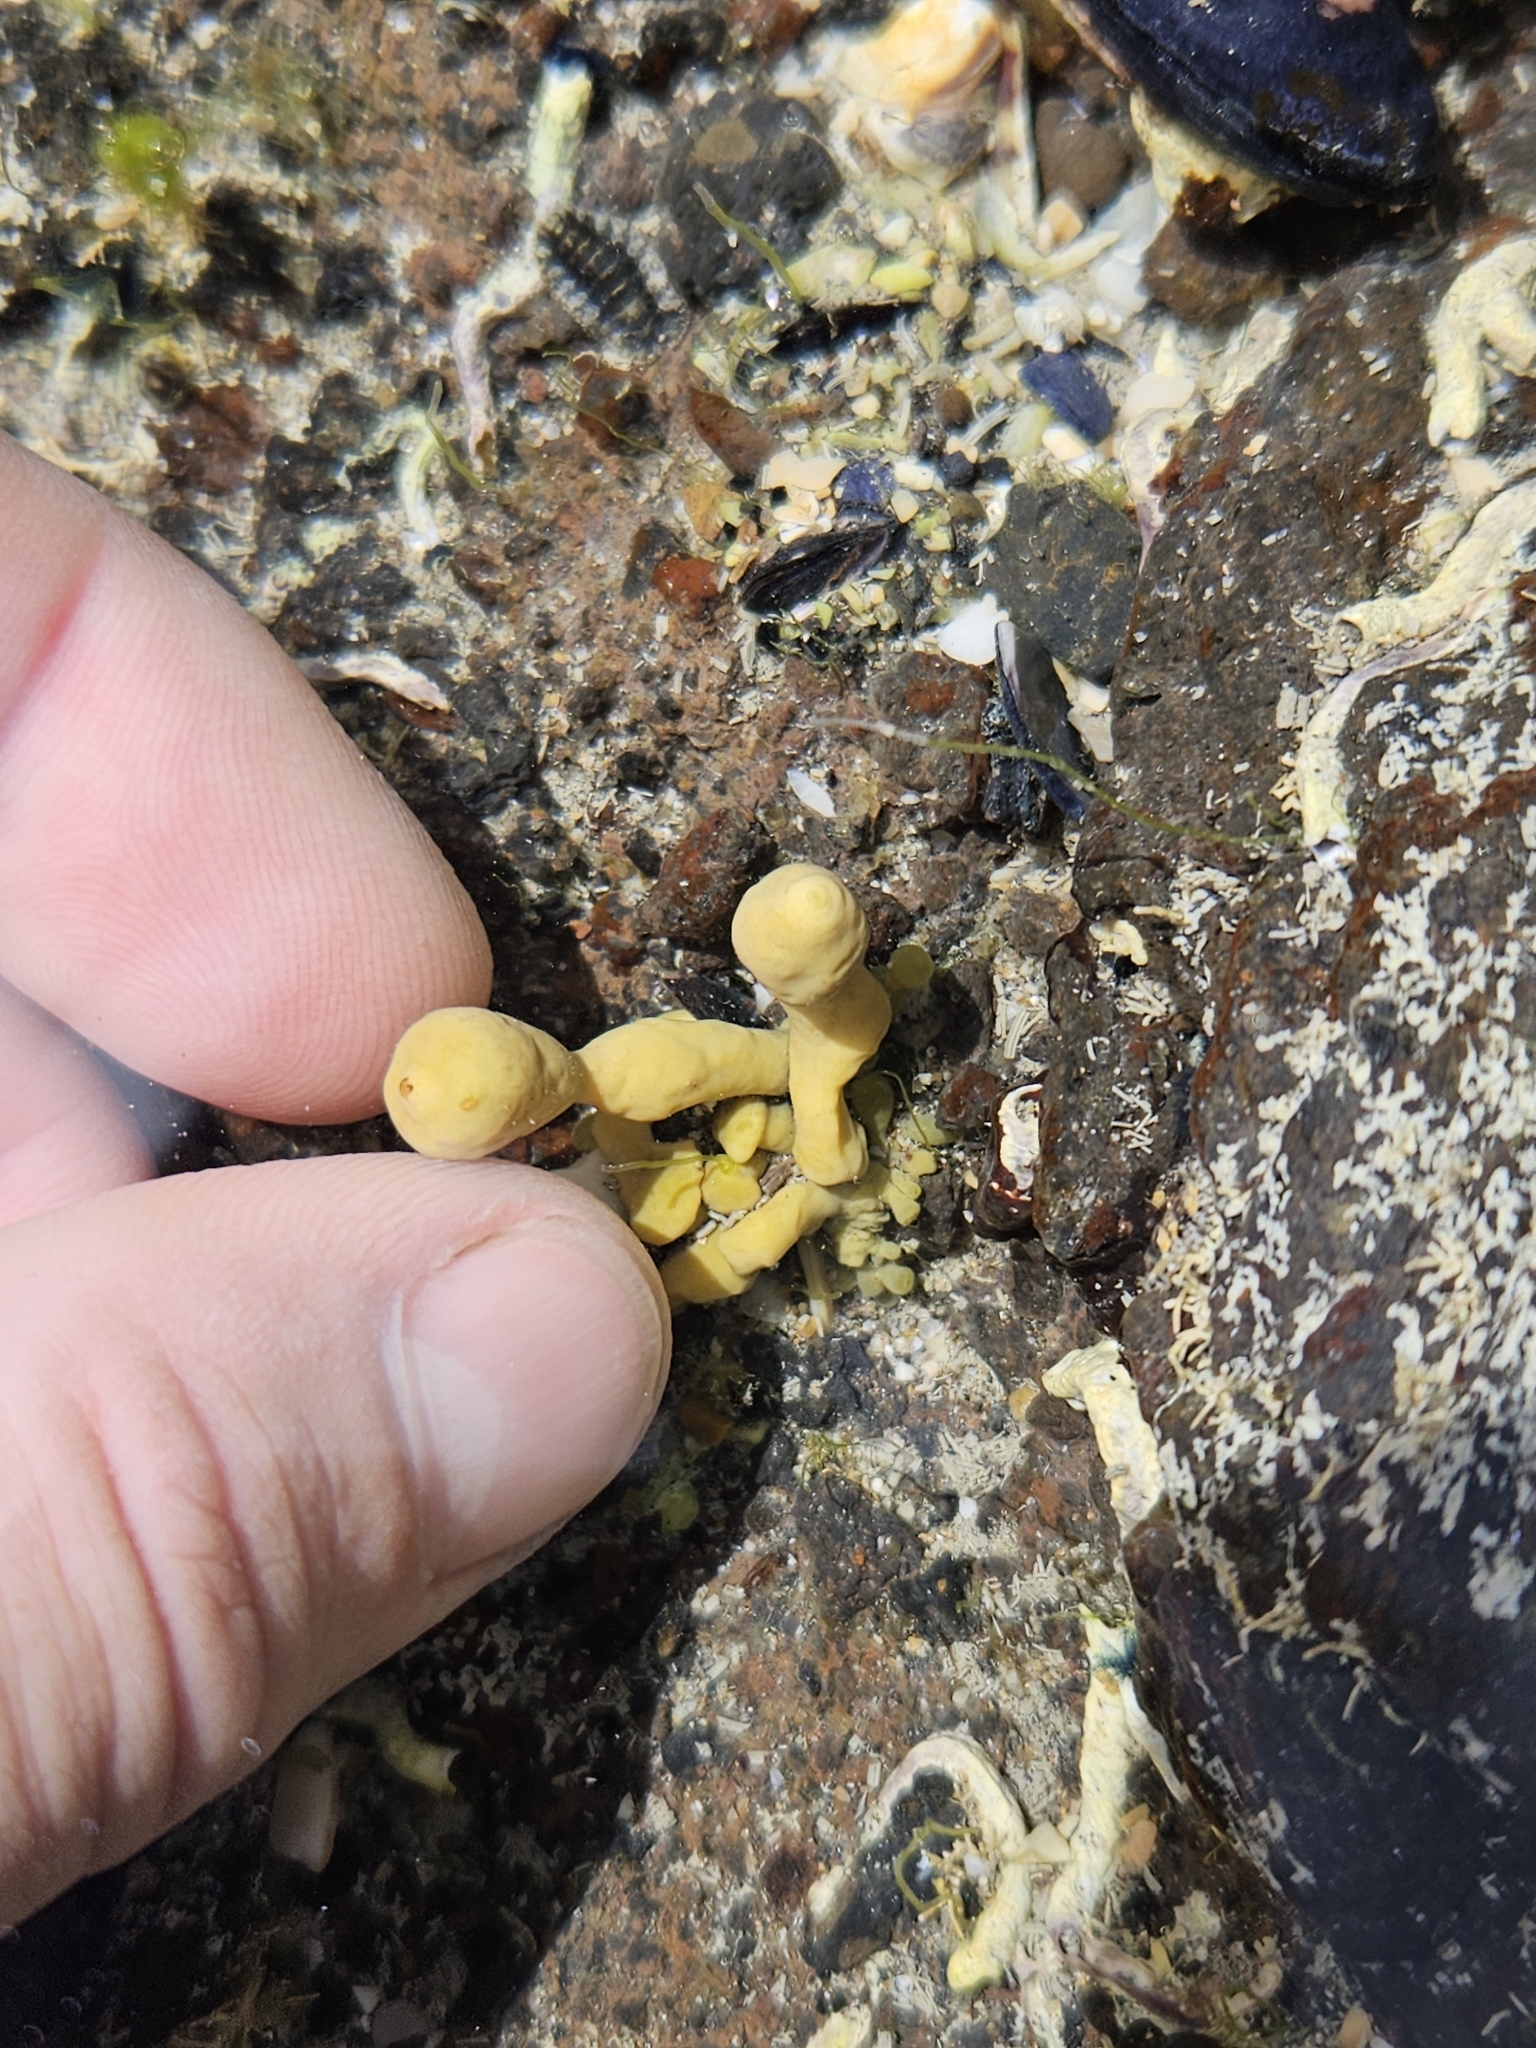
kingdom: Chromista
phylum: Ochrophyta
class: Phaeophyceae
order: Fucales
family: Hormosiraceae
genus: Hormosira
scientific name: Hormosira banksii
